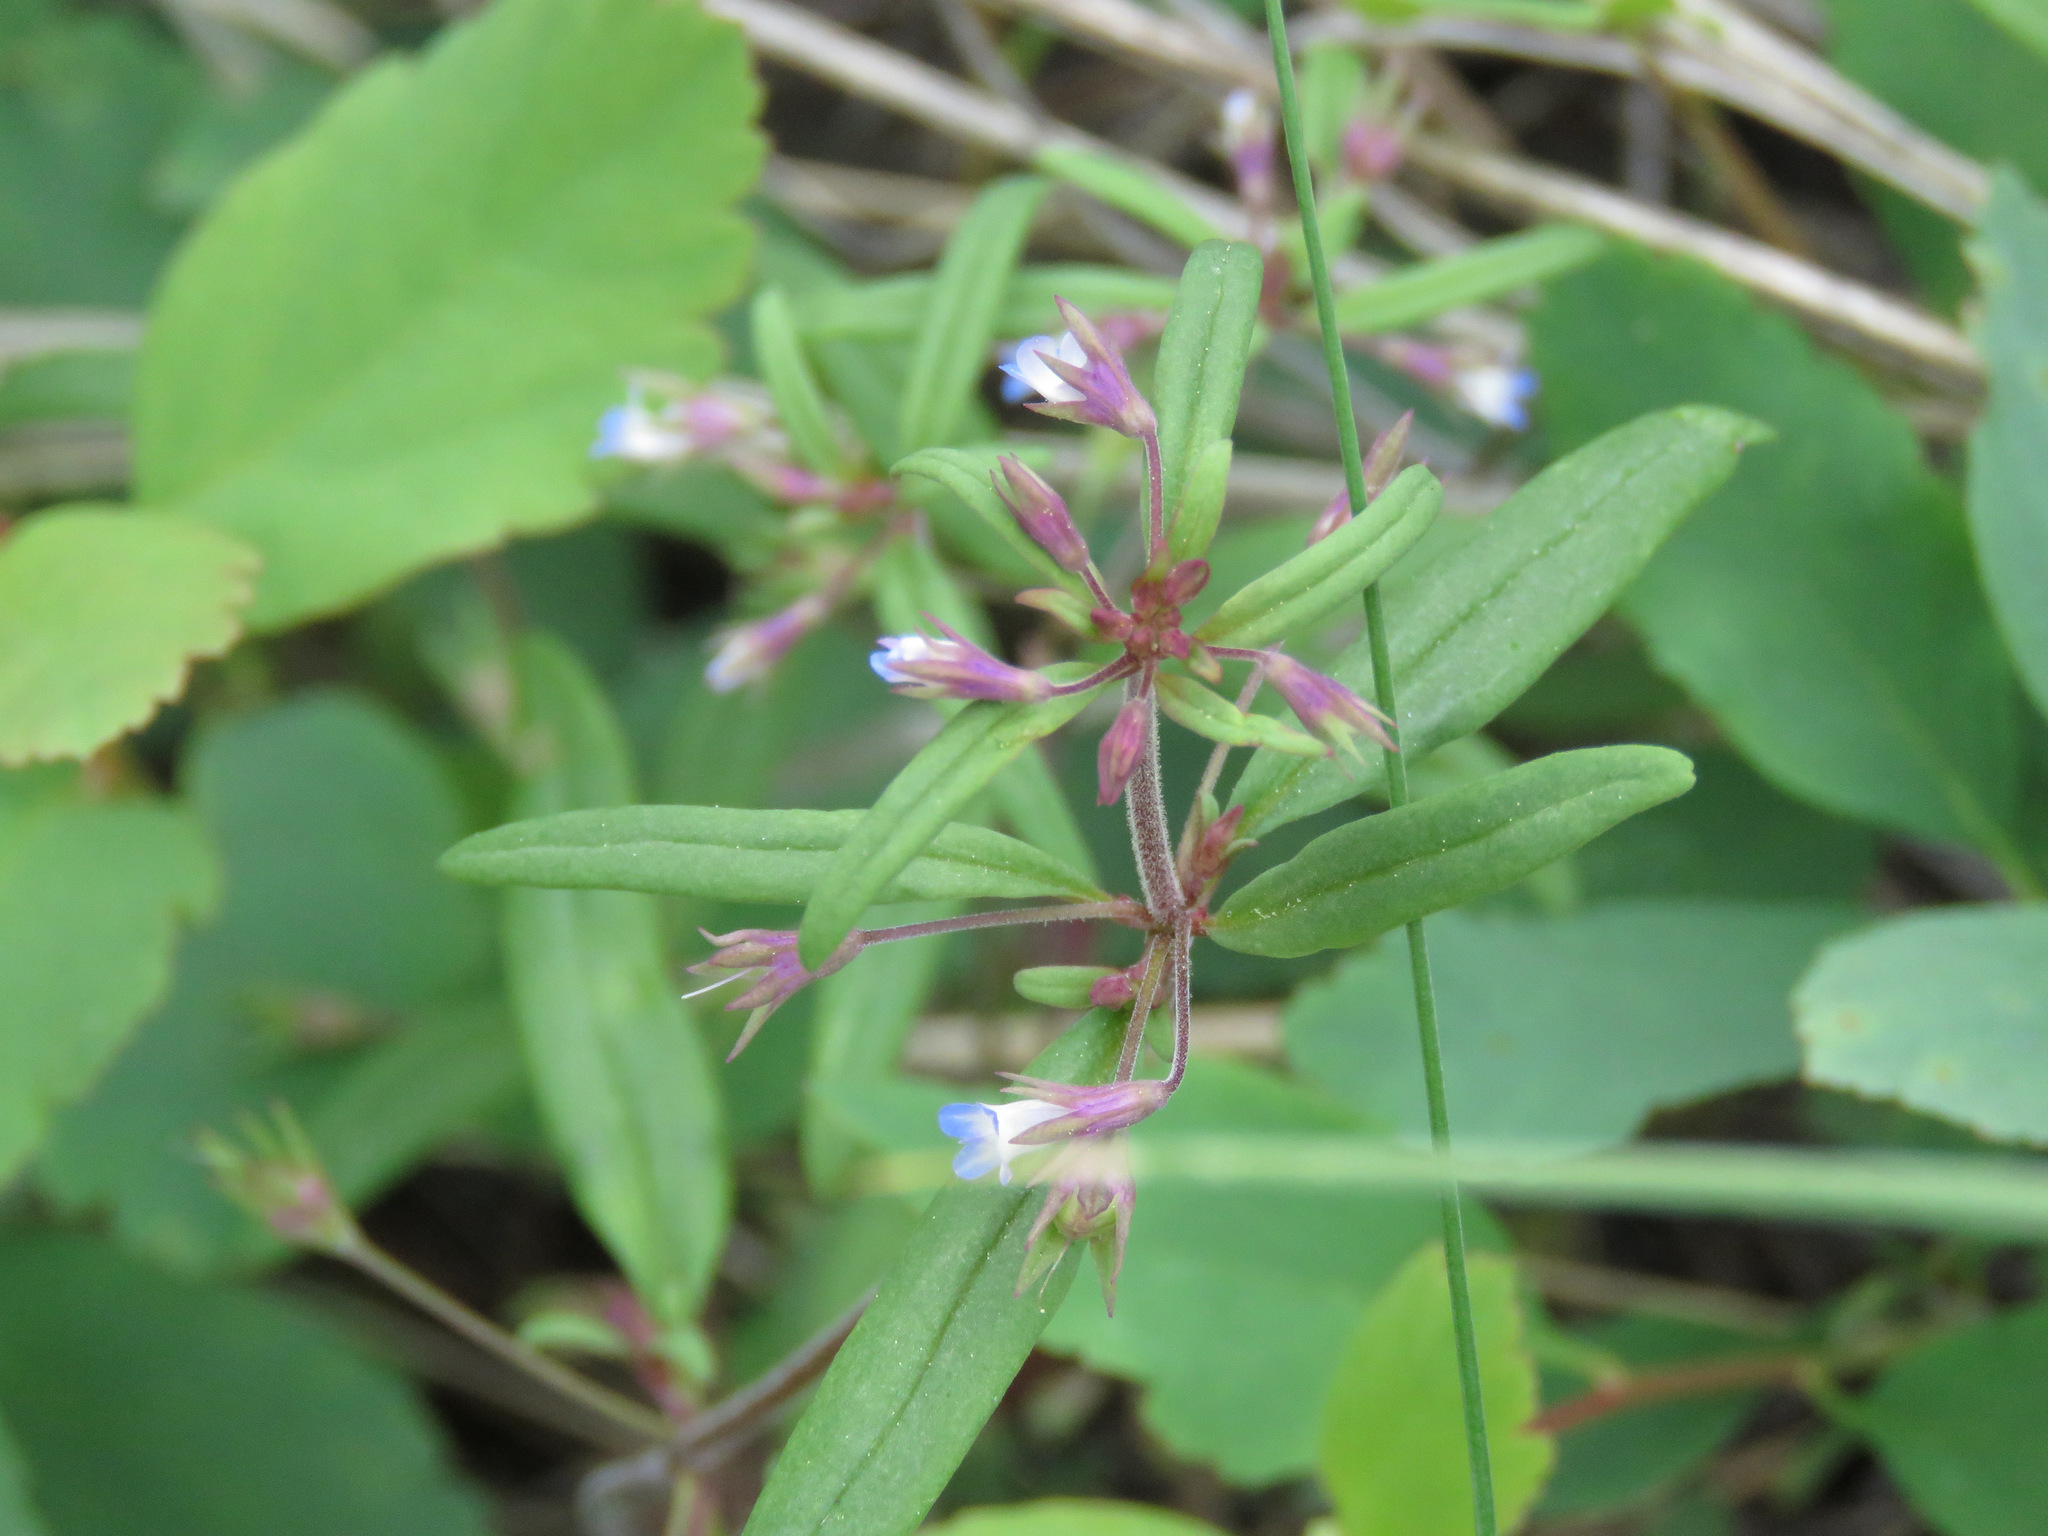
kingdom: Plantae
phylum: Tracheophyta
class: Magnoliopsida
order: Lamiales
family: Plantaginaceae
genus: Collinsia
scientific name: Collinsia parviflora
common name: Blue-lips
